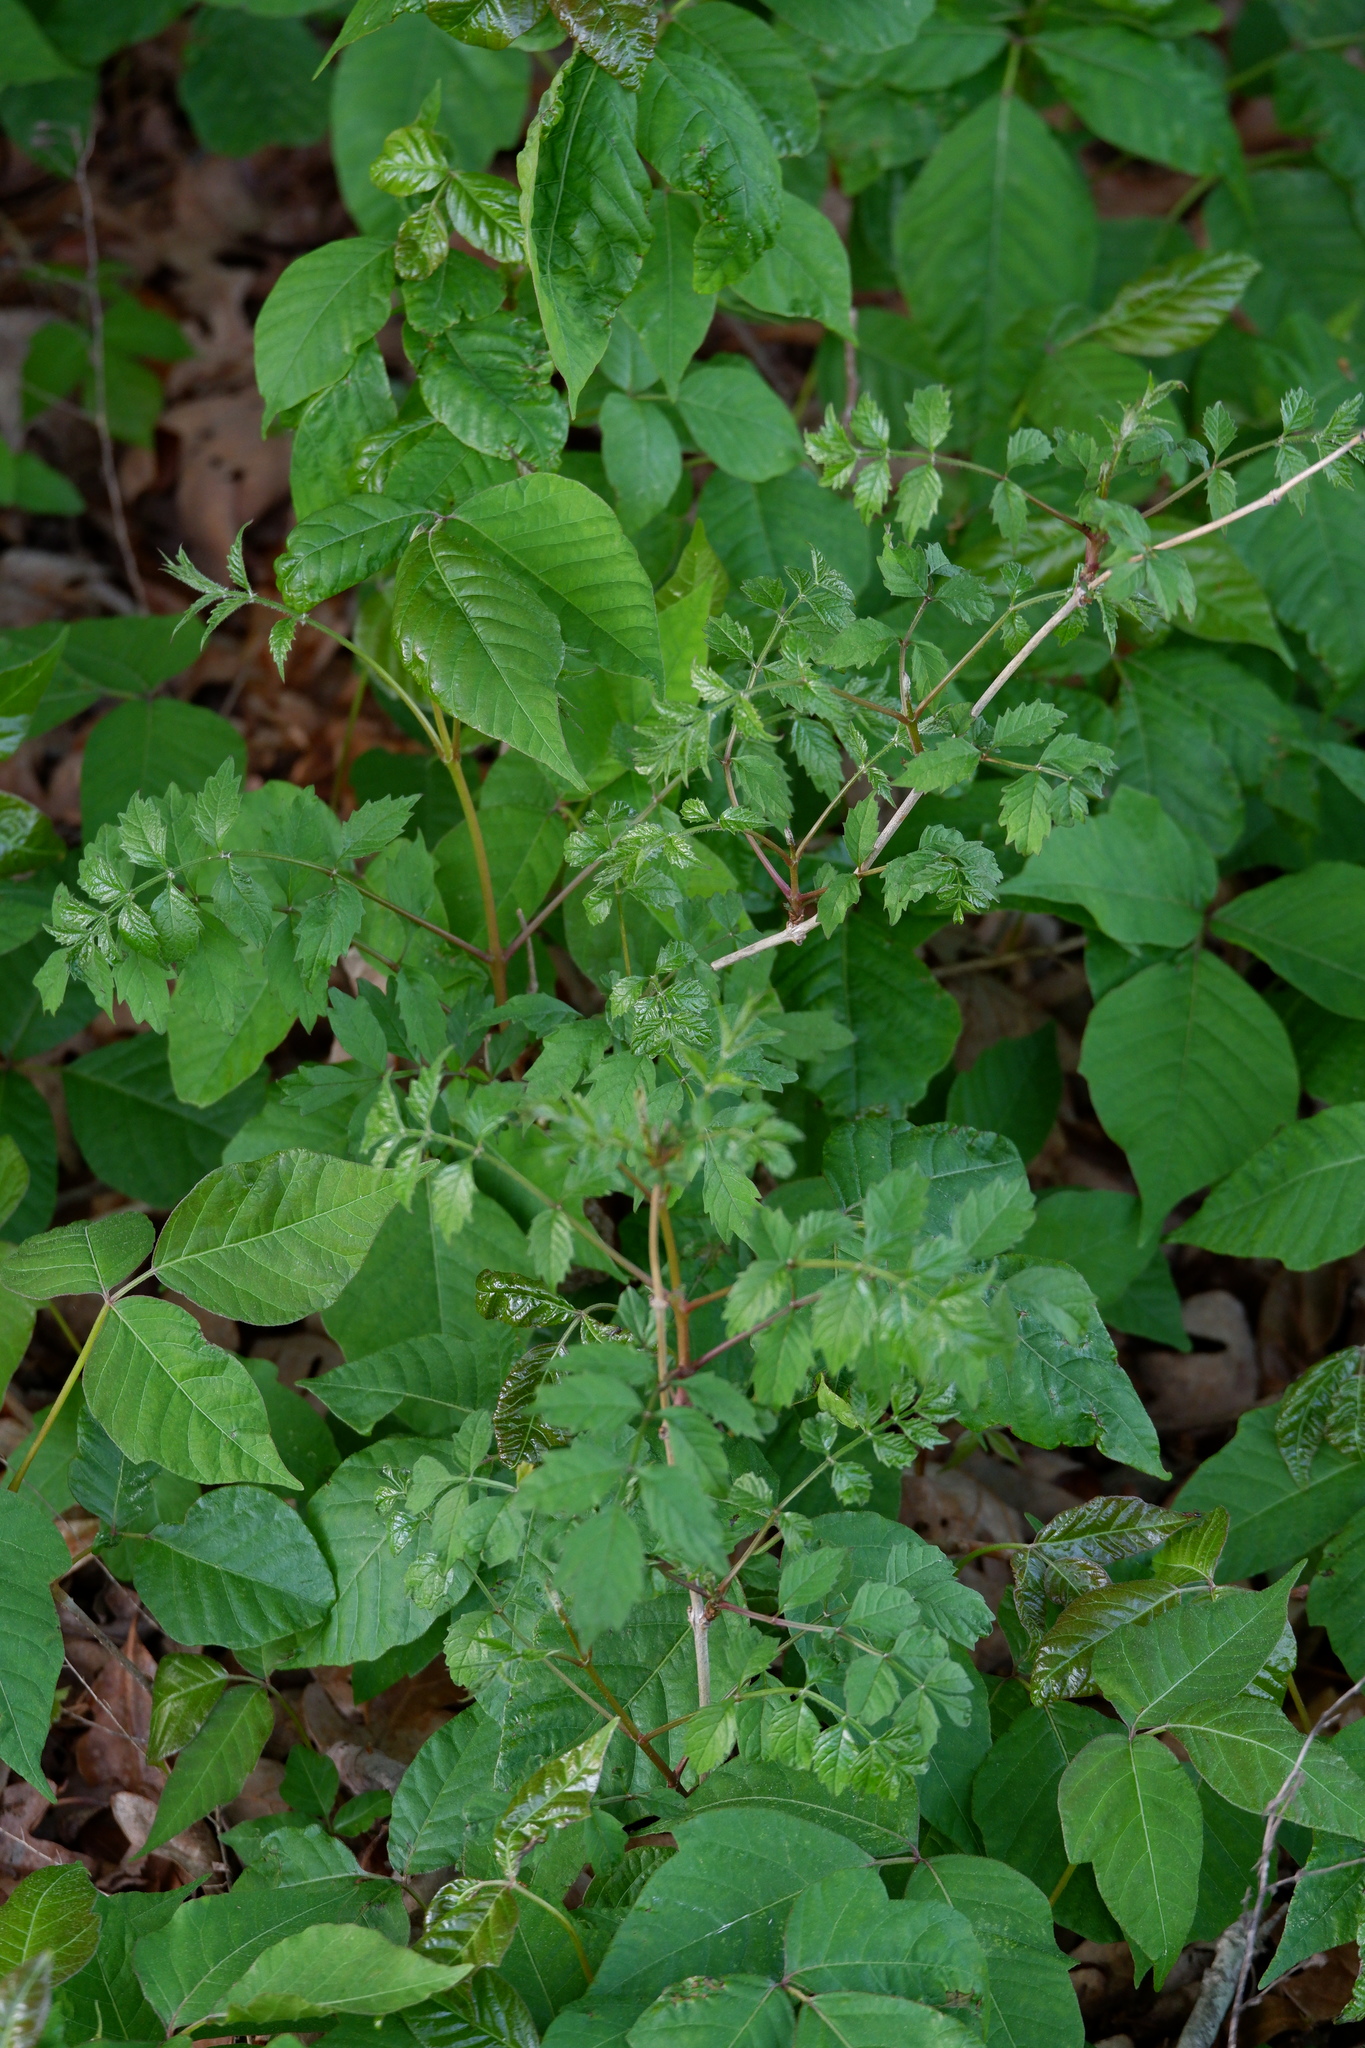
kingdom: Plantae
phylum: Tracheophyta
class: Magnoliopsida
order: Lamiales
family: Bignoniaceae
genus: Campsis
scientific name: Campsis radicans
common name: Trumpet-creeper
